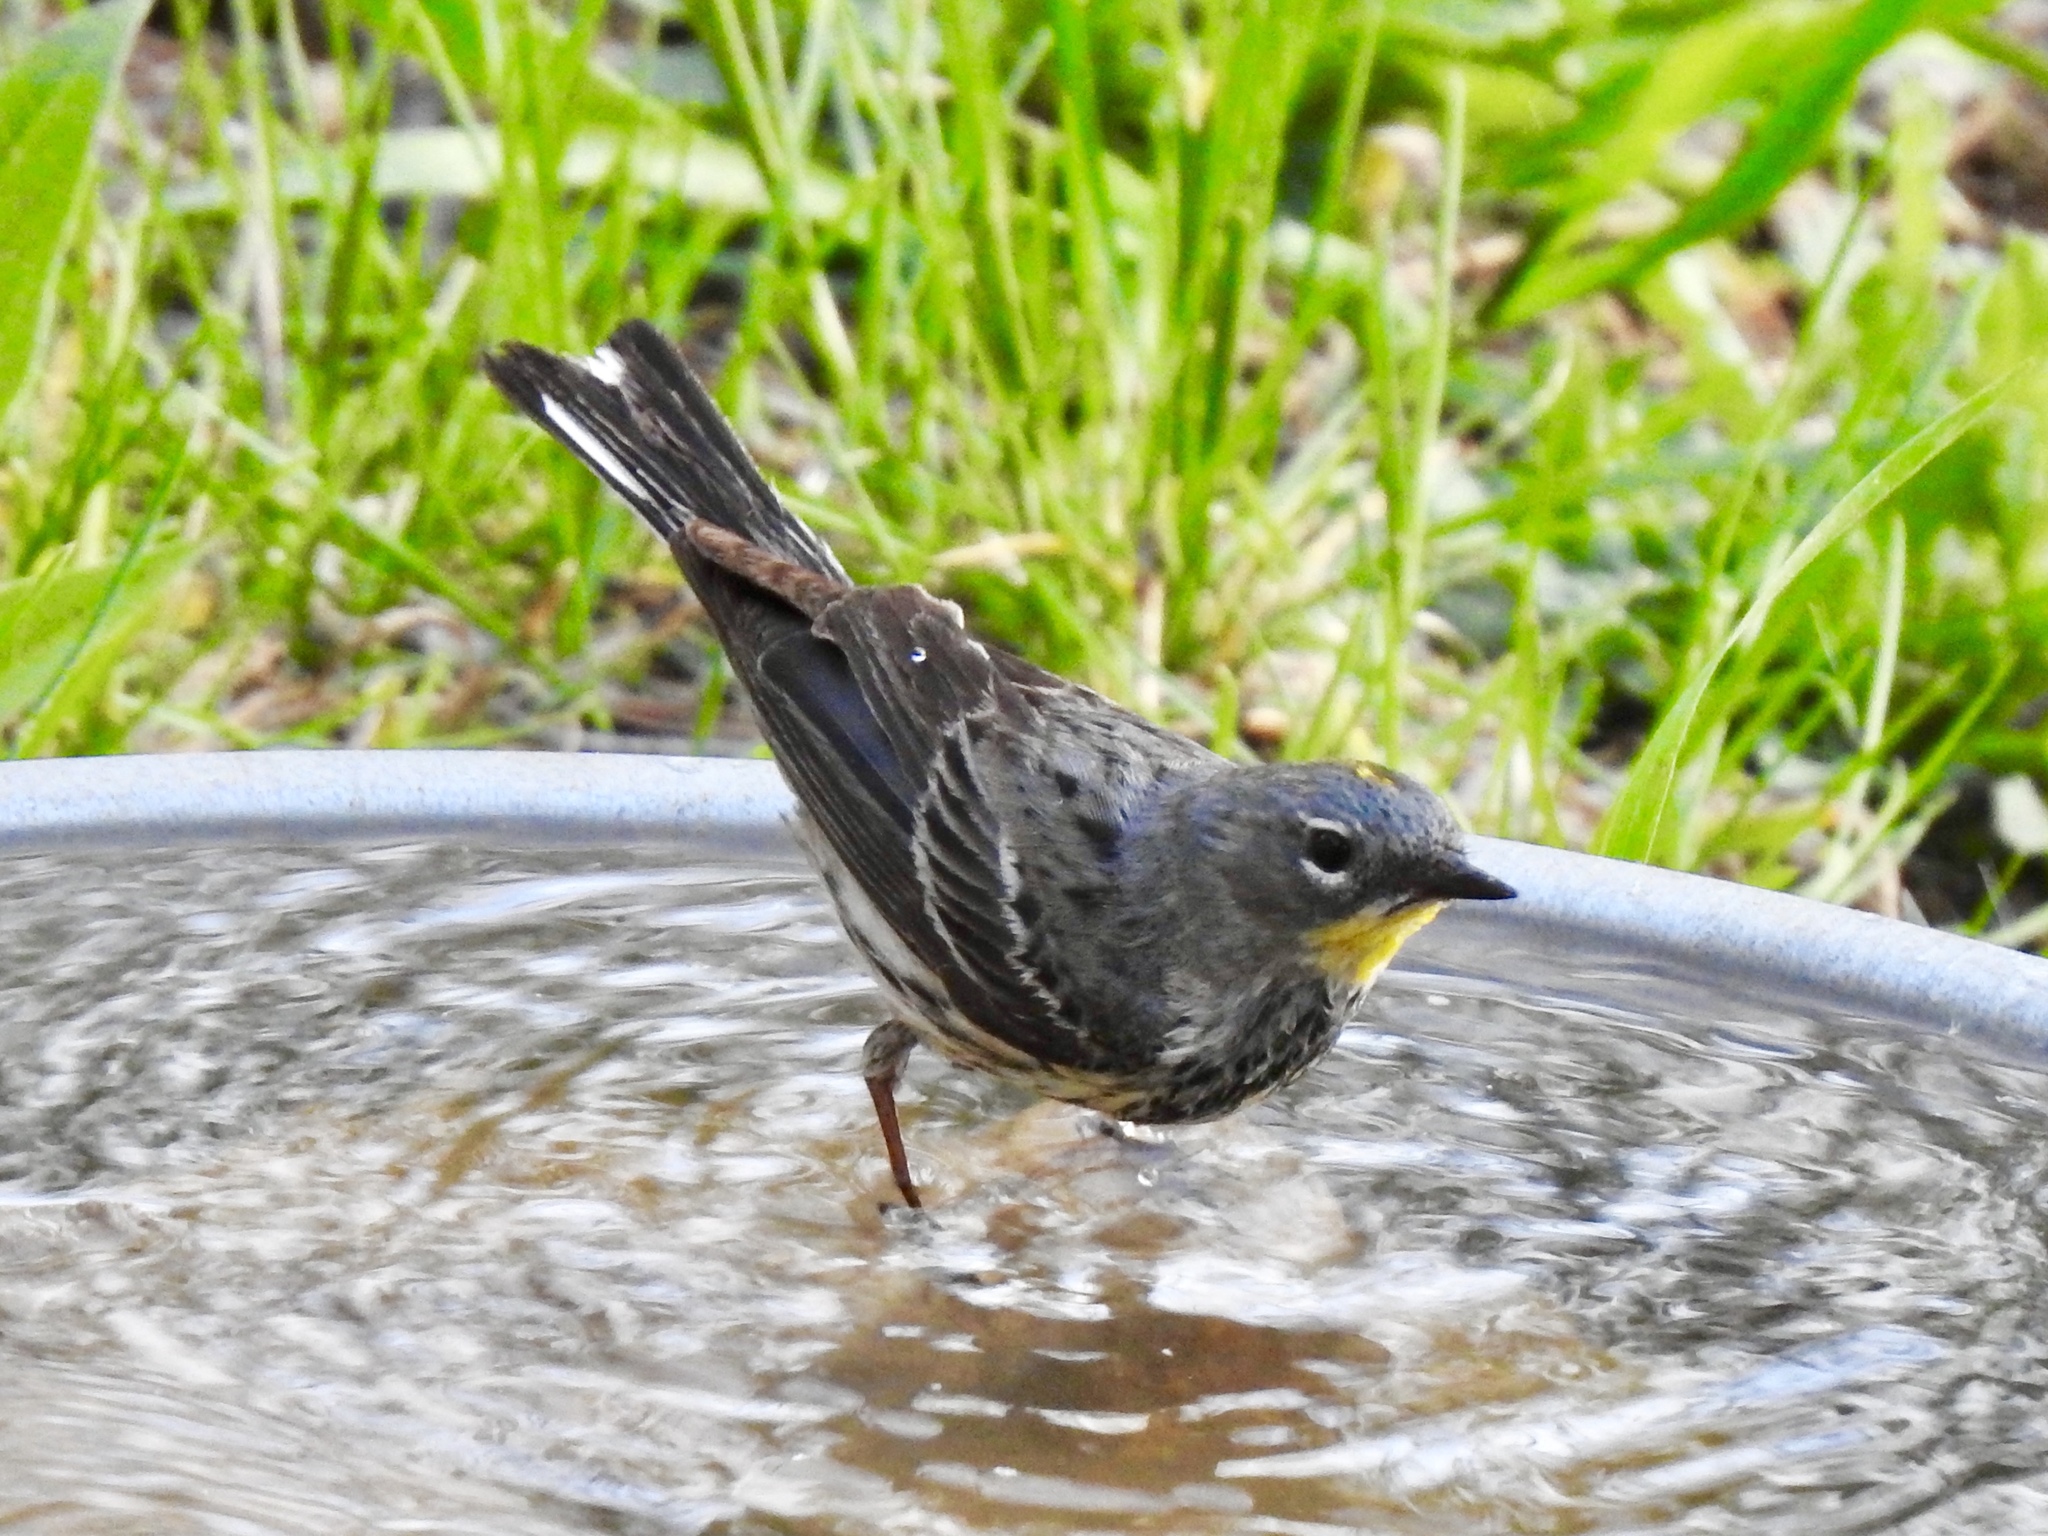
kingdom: Animalia
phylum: Chordata
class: Aves
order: Passeriformes
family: Parulidae
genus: Setophaga
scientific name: Setophaga coronata
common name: Myrtle warbler
